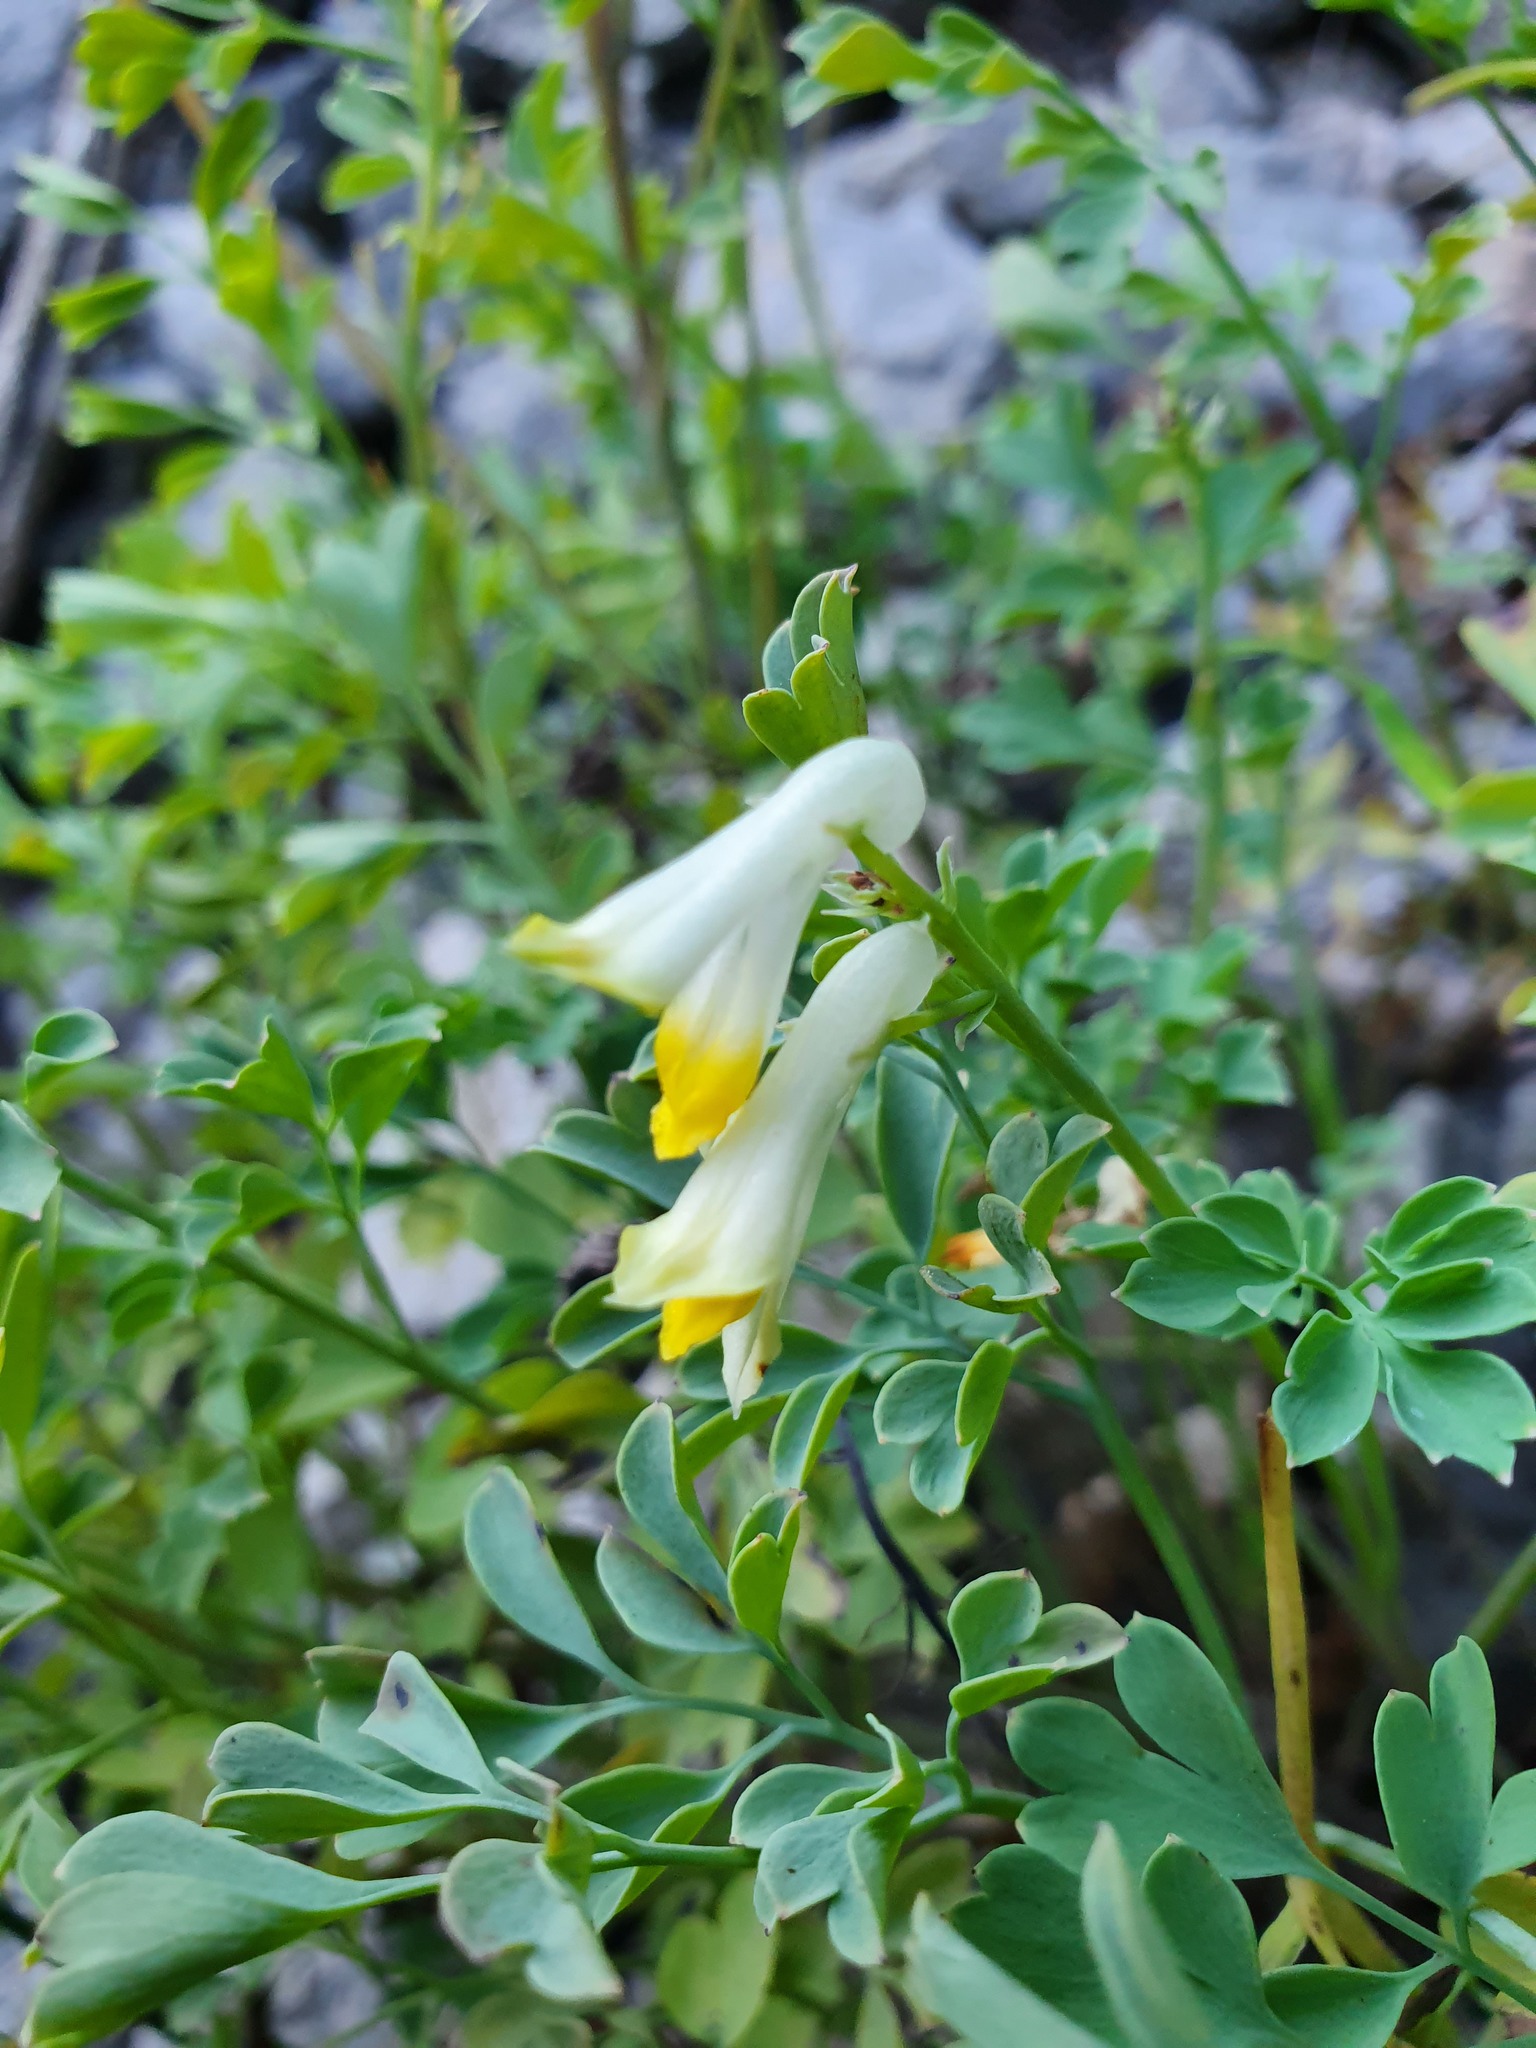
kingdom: Plantae
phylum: Tracheophyta
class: Magnoliopsida
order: Ranunculales
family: Papaveraceae
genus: Pseudofumaria
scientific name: Pseudofumaria alba
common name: Pale corydalis
